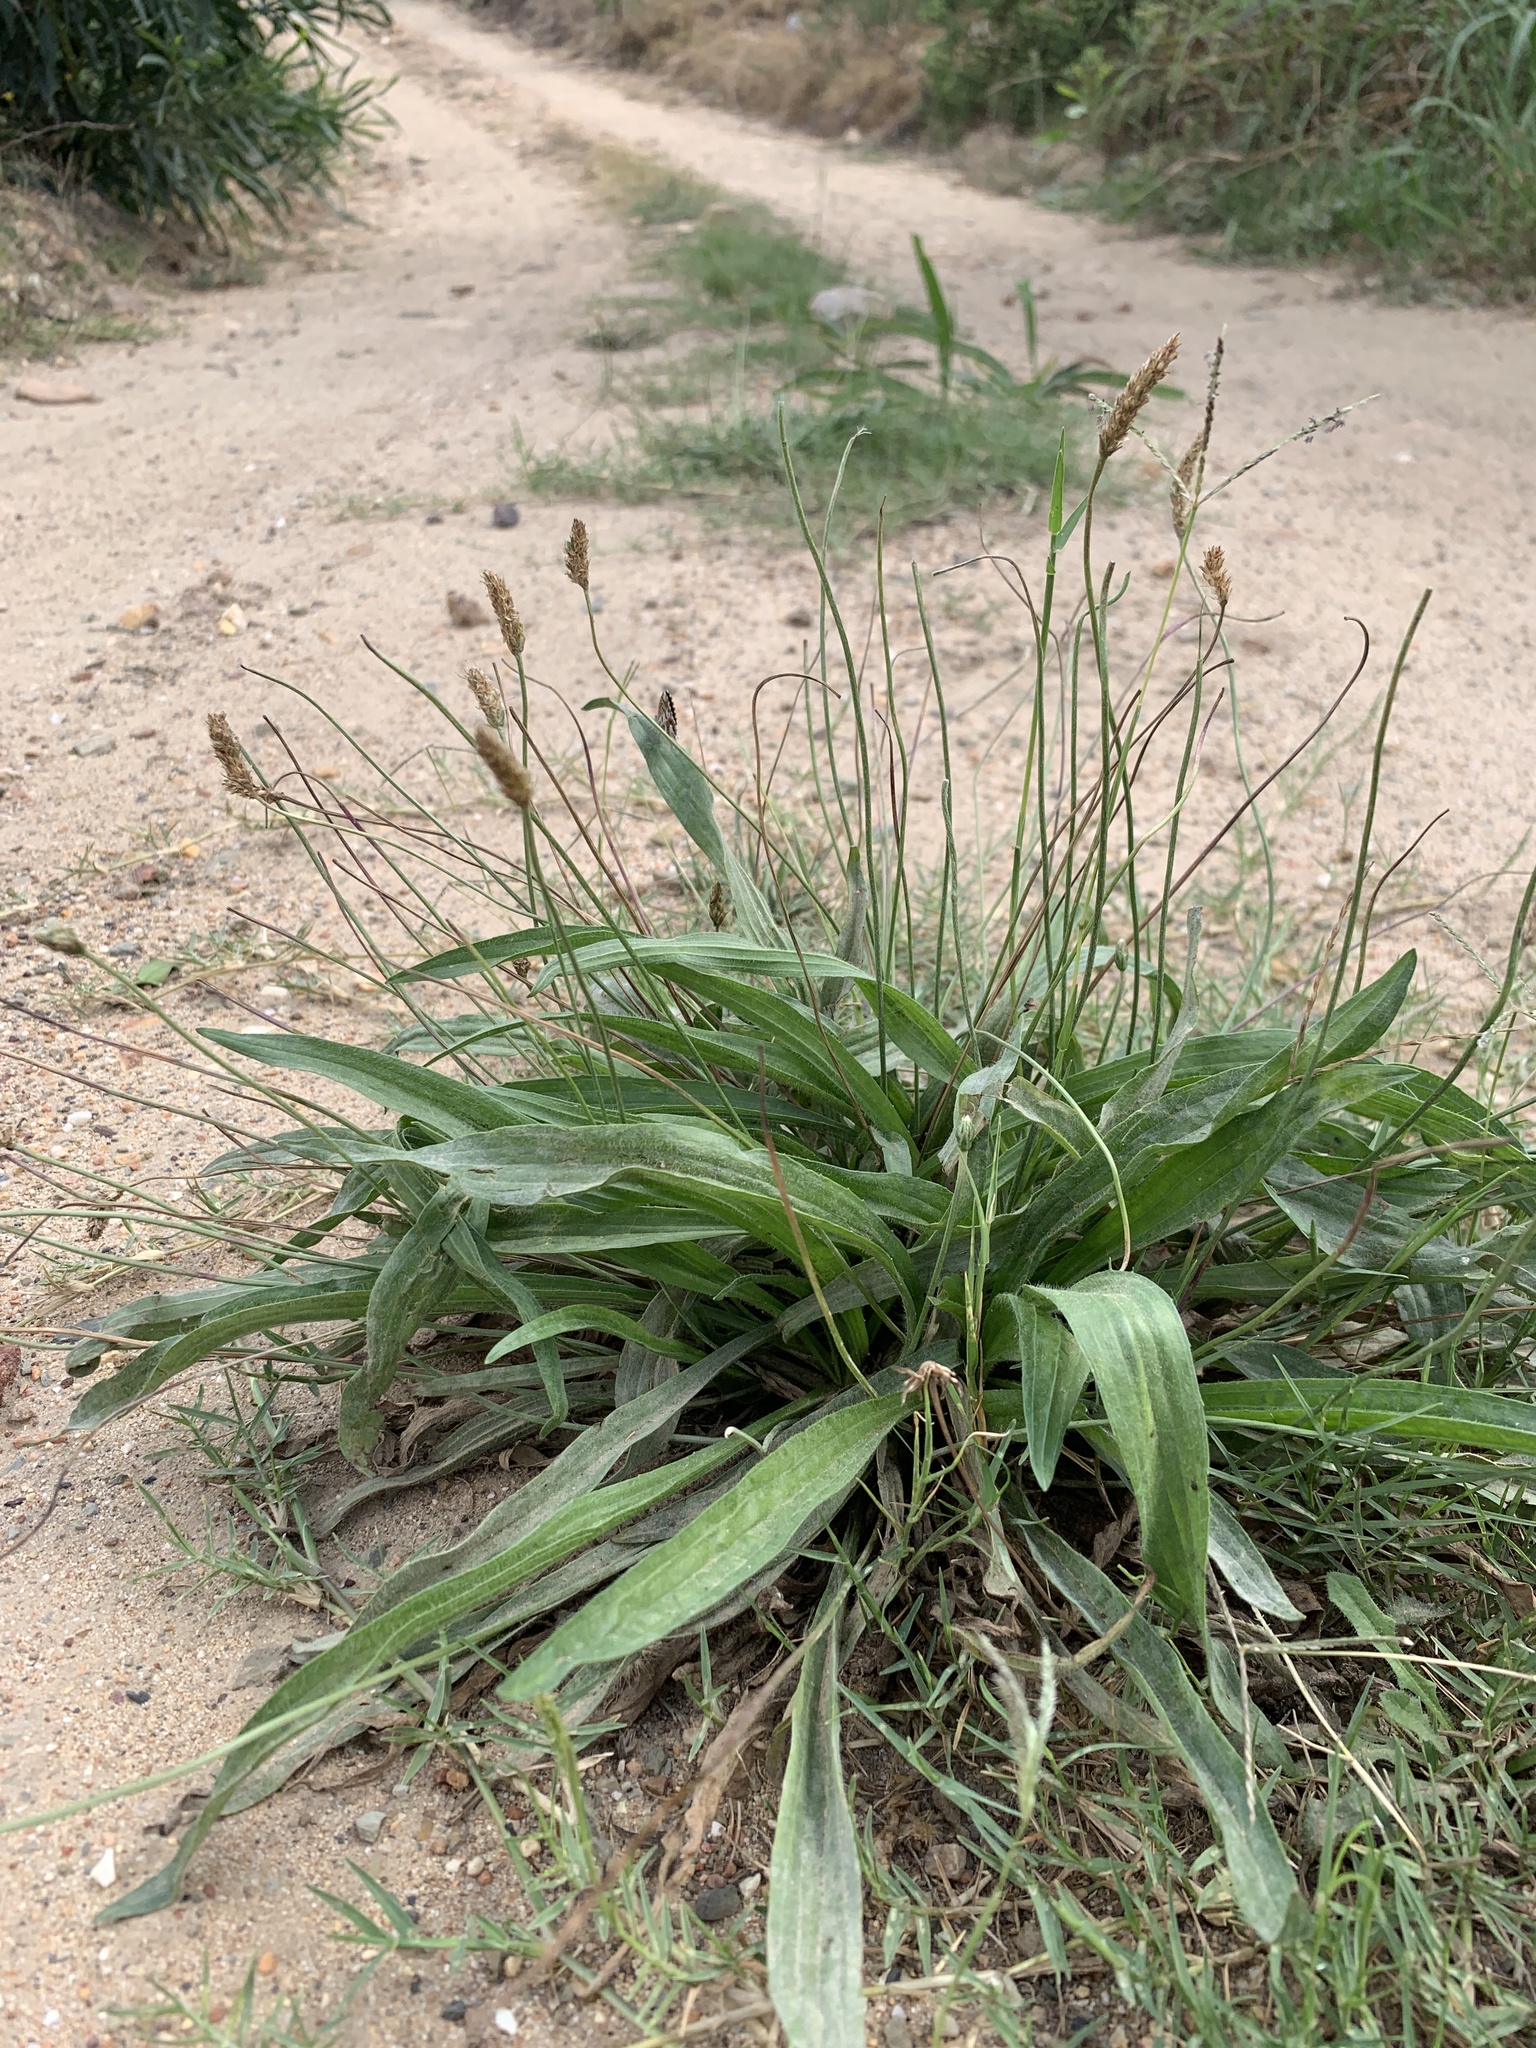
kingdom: Plantae
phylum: Tracheophyta
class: Magnoliopsida
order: Lamiales
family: Plantaginaceae
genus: Plantago
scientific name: Plantago lanceolata
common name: Ribwort plantain
